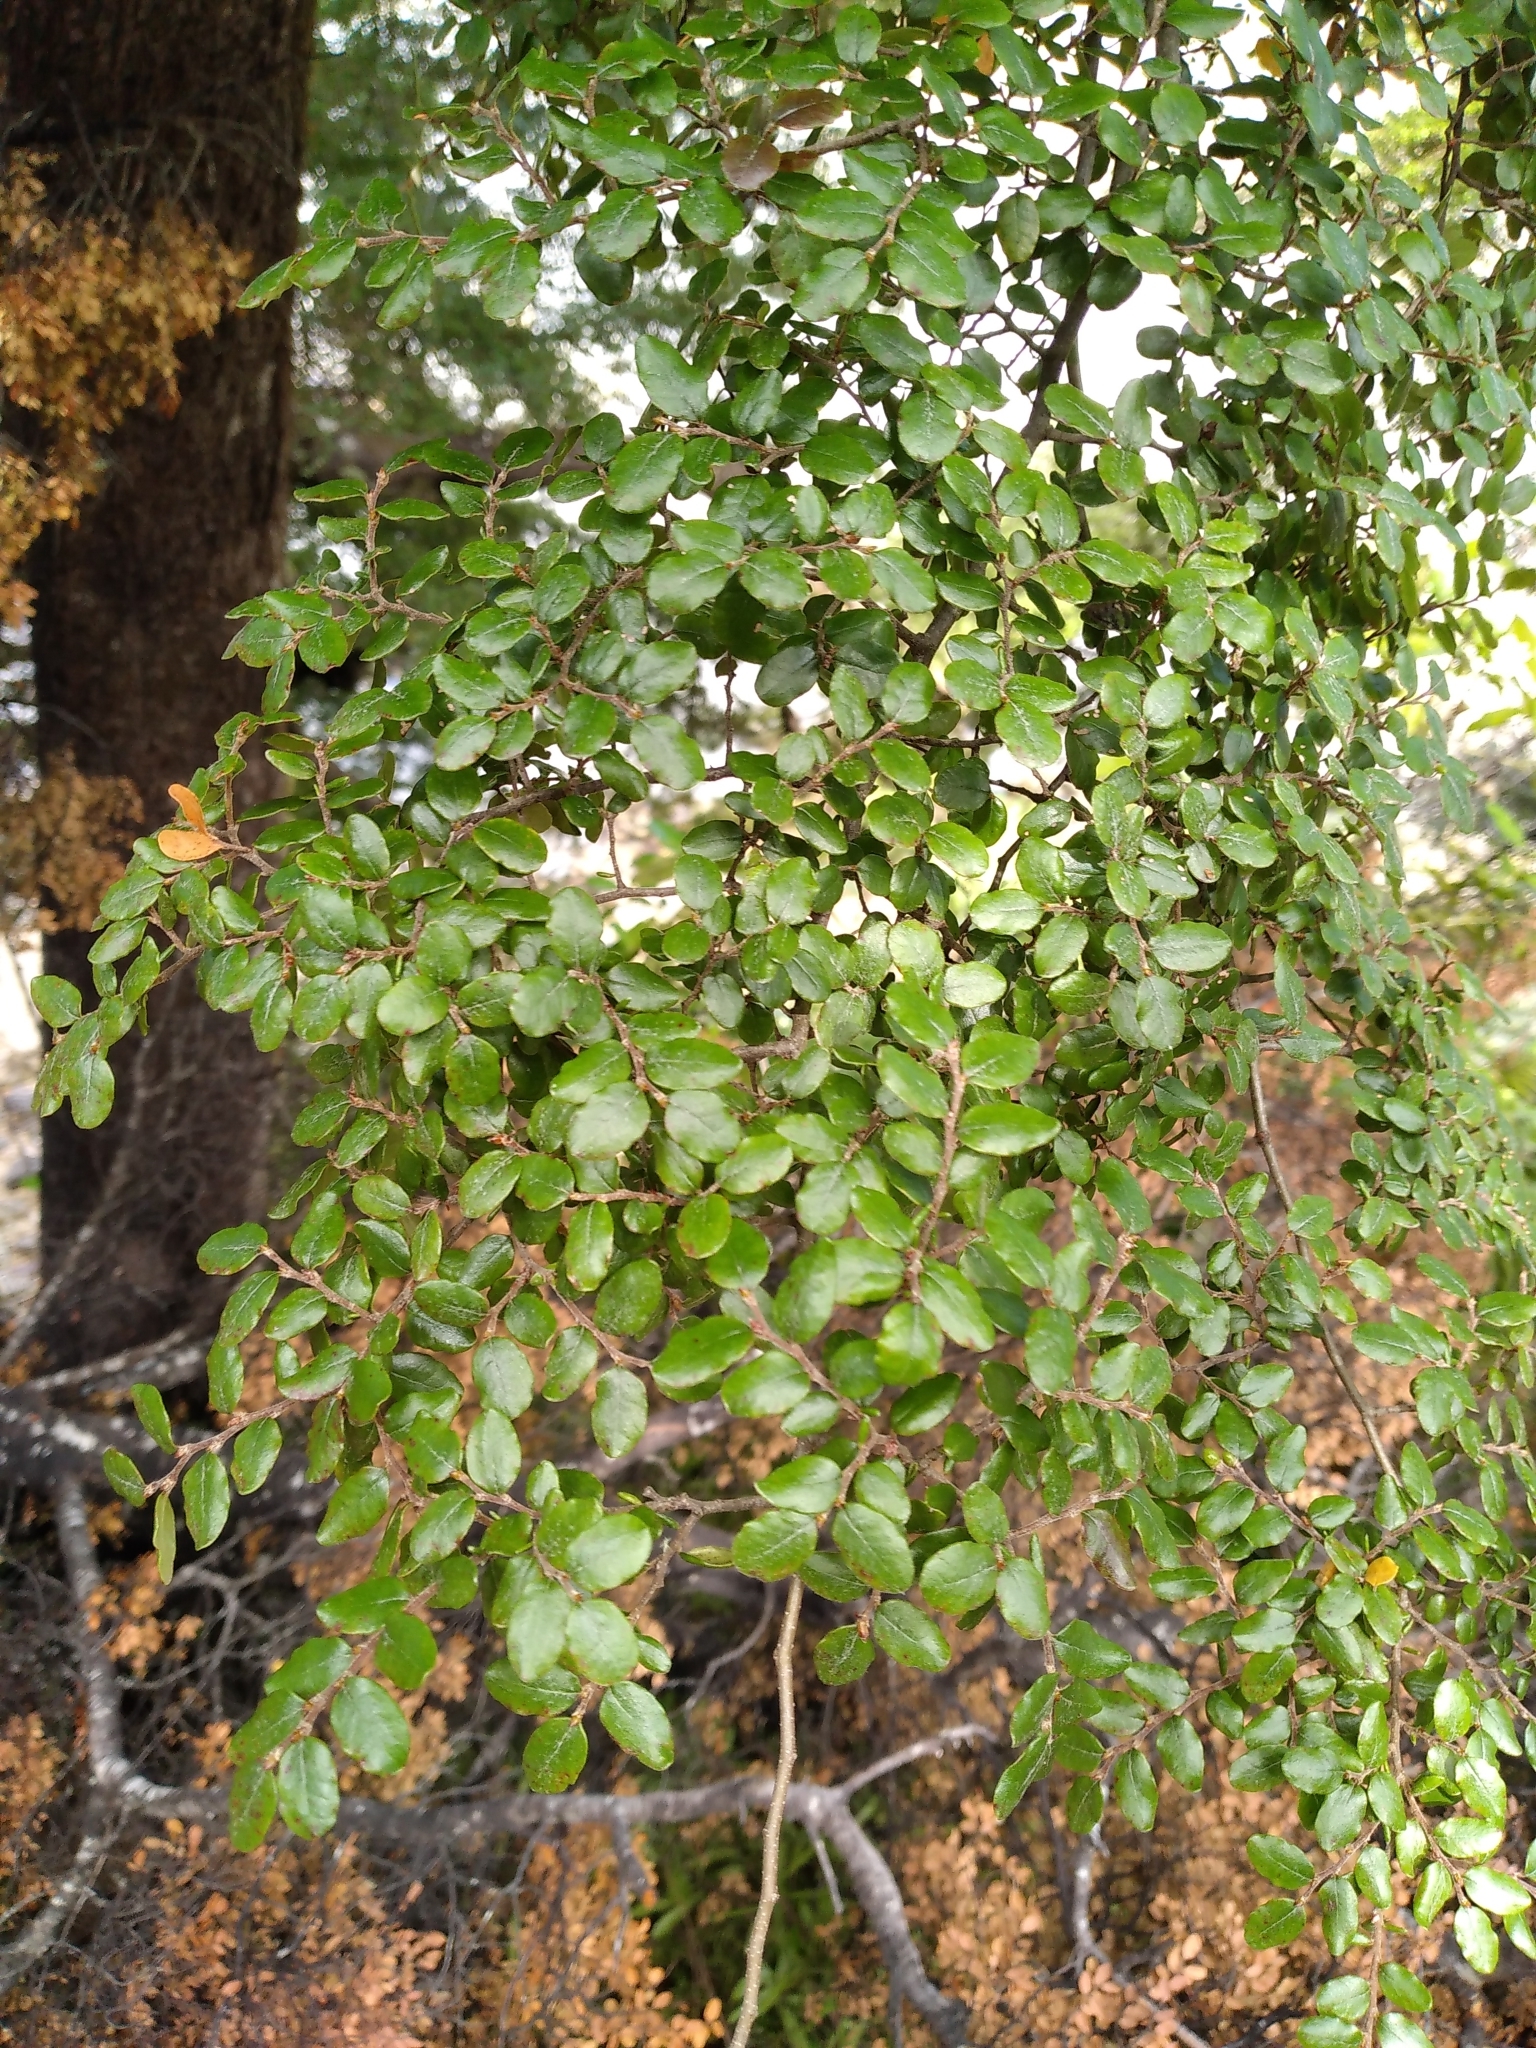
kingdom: Plantae
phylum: Tracheophyta
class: Magnoliopsida
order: Fagales
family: Nothofagaceae
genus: Nothofagus
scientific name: Nothofagus solandri
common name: Black beech
